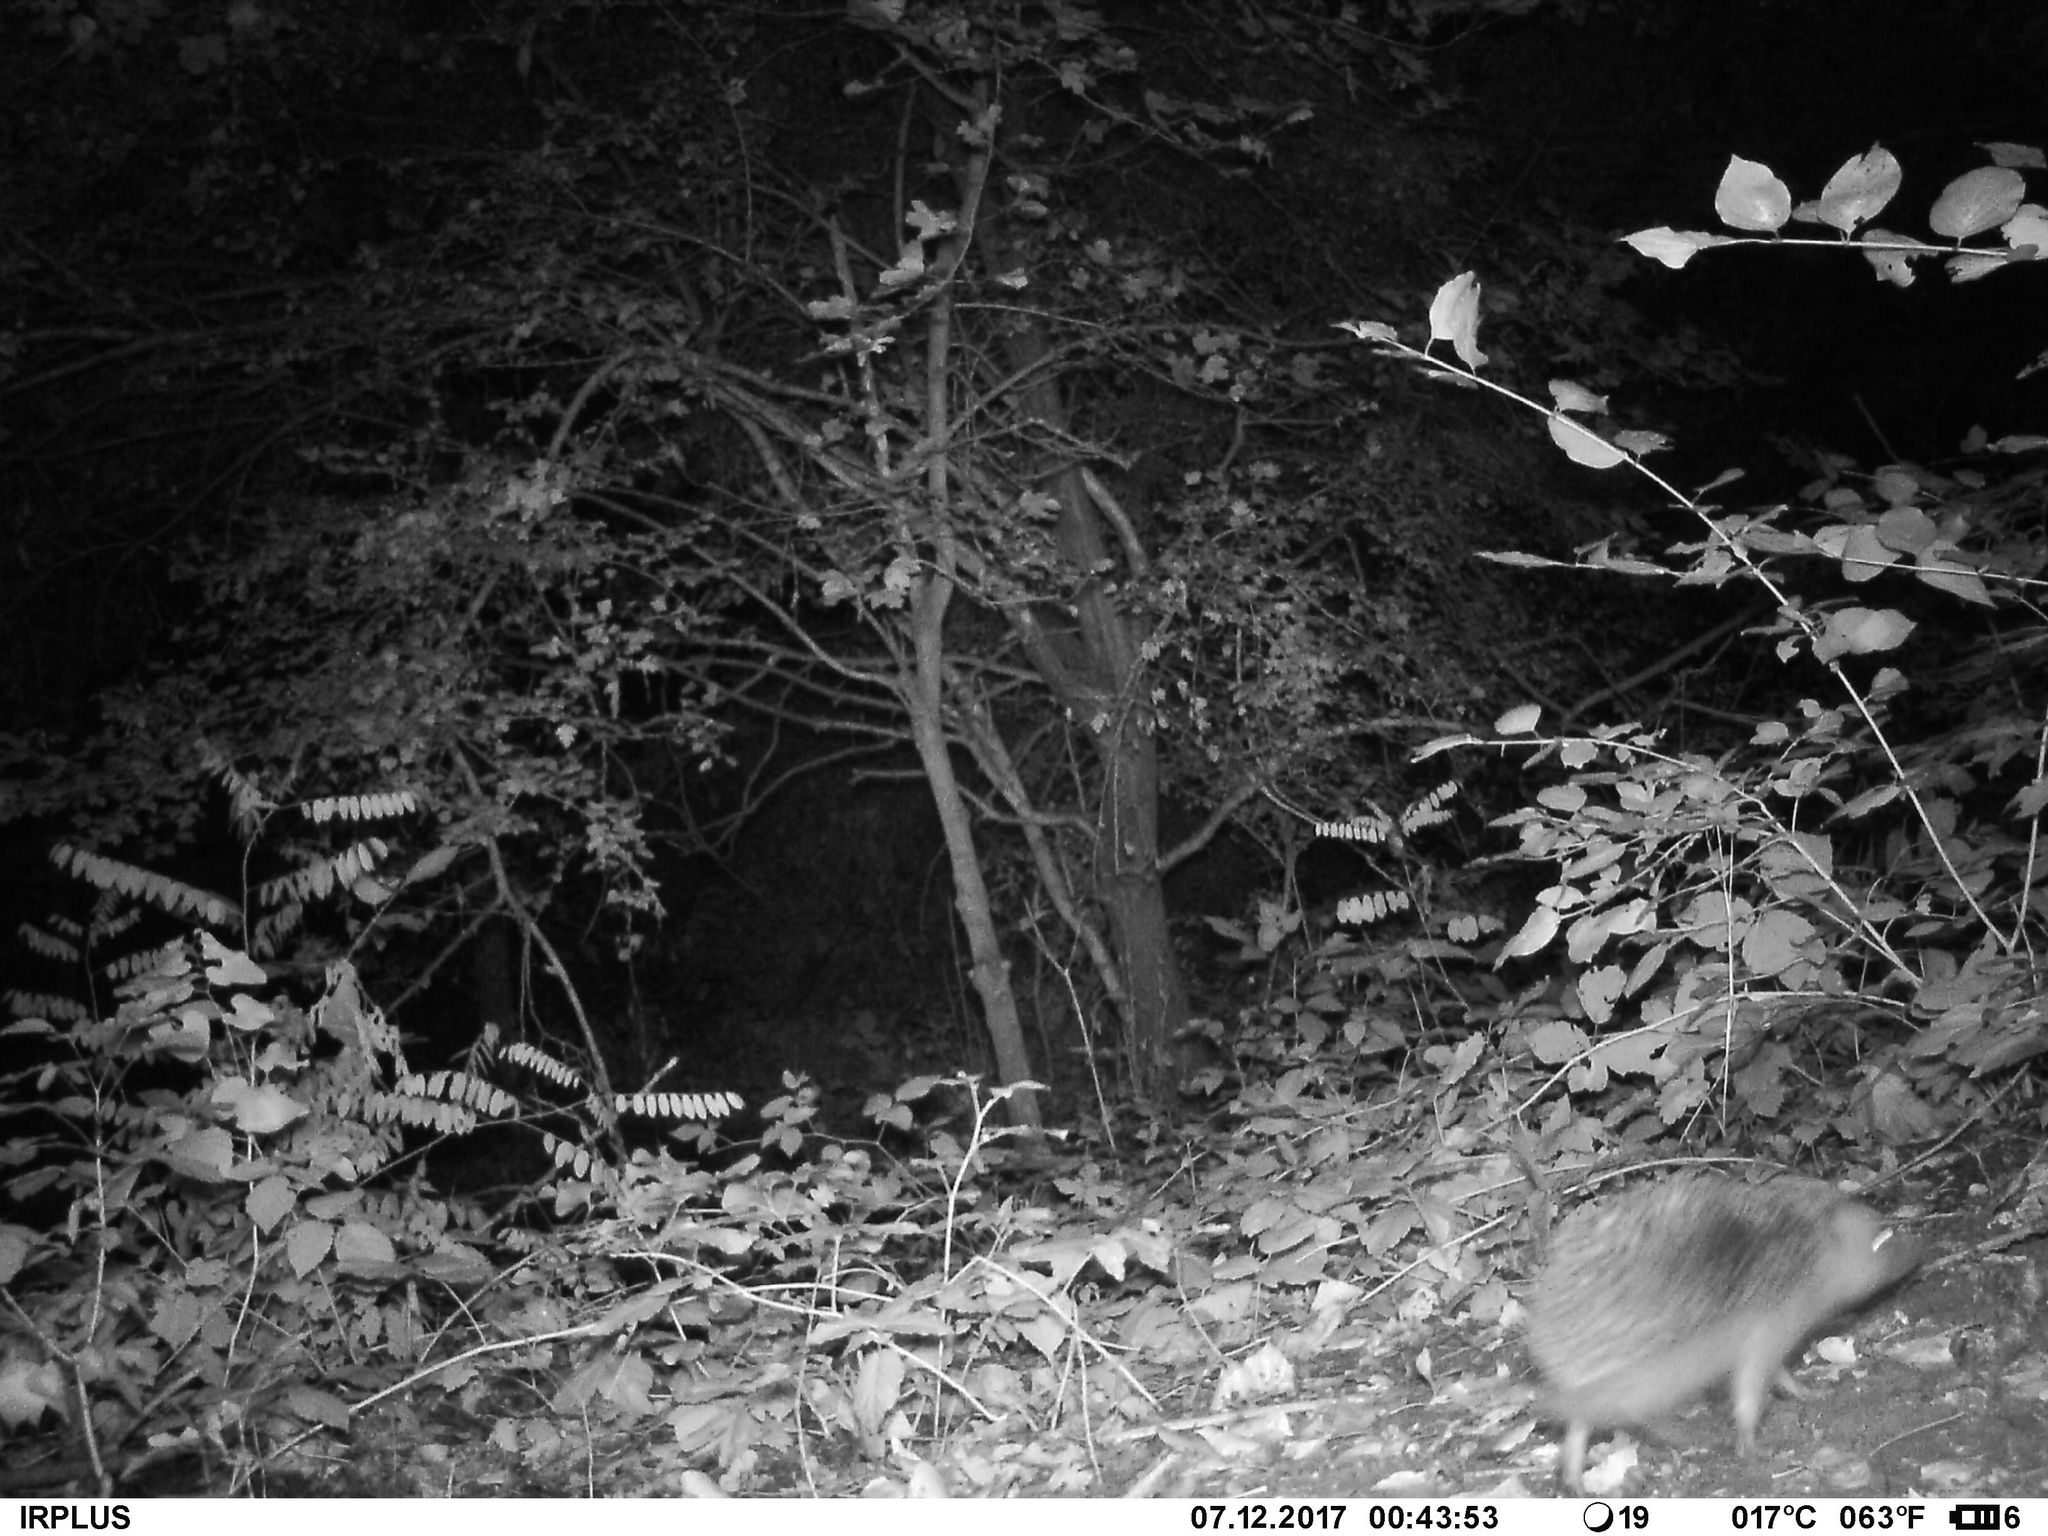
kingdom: Animalia
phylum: Chordata
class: Mammalia
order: Erinaceomorpha
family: Erinaceidae
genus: Erinaceus
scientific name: Erinaceus europaeus
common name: West european hedgehog
